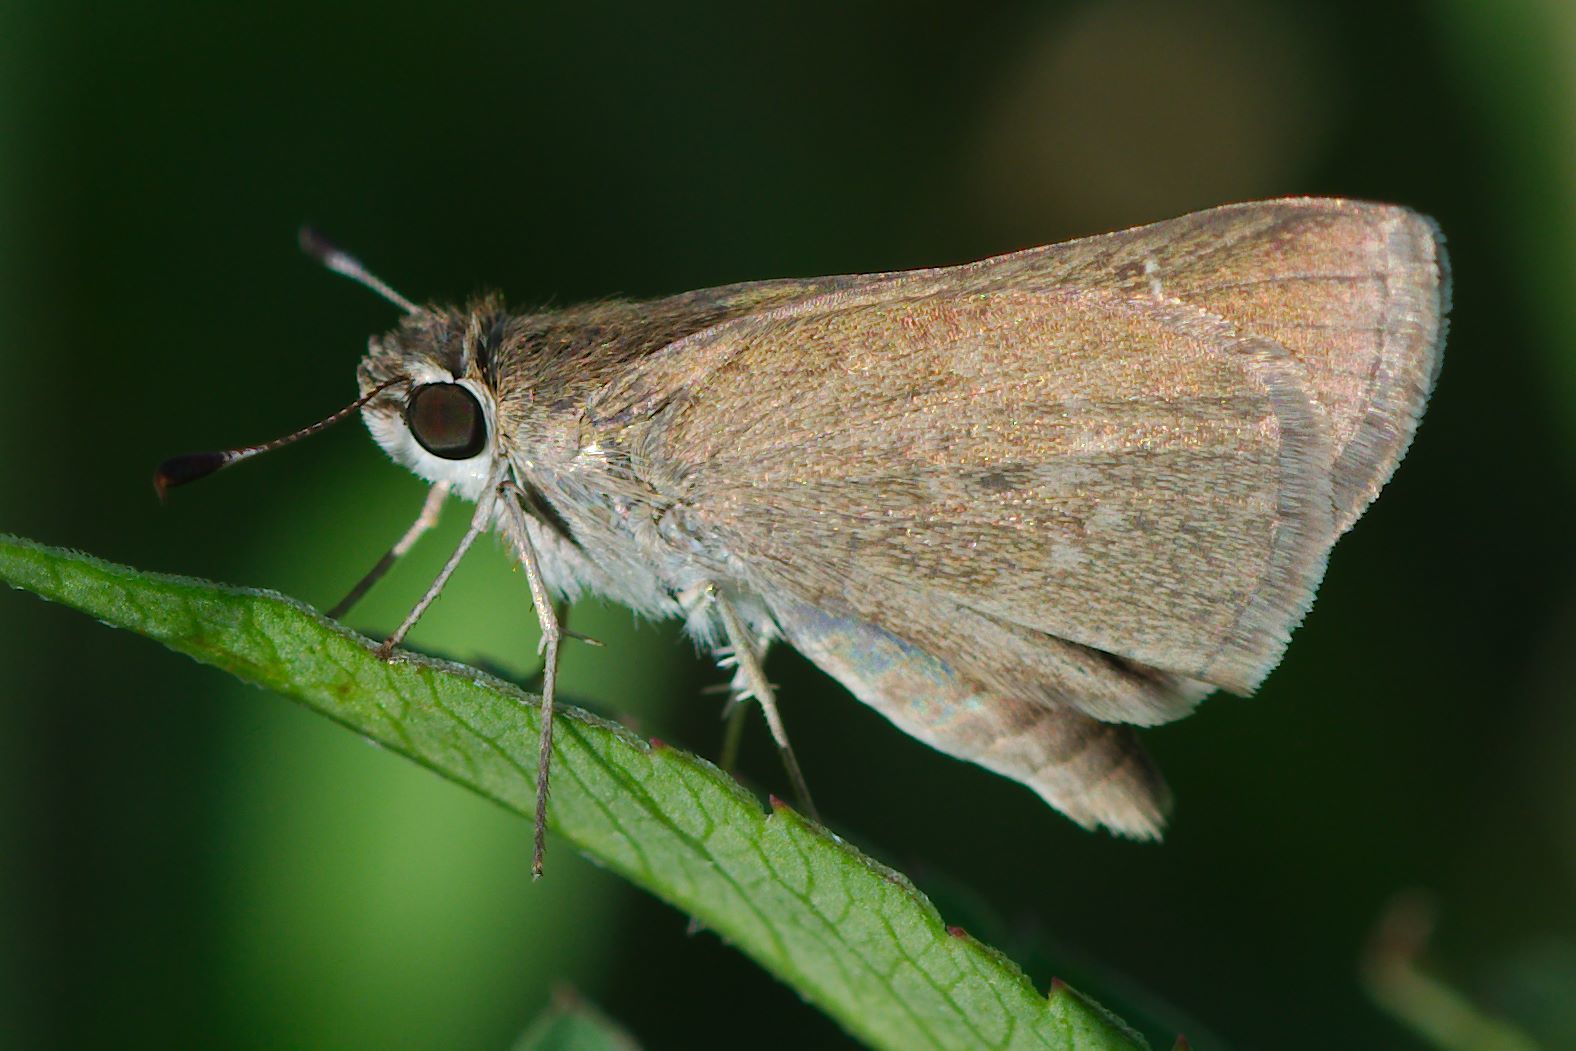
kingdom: Animalia
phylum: Arthropoda
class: Insecta
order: Lepidoptera
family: Hesperiidae
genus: Cymaenes
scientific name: Cymaenes tripunctus
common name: Dingy dotted skipper
